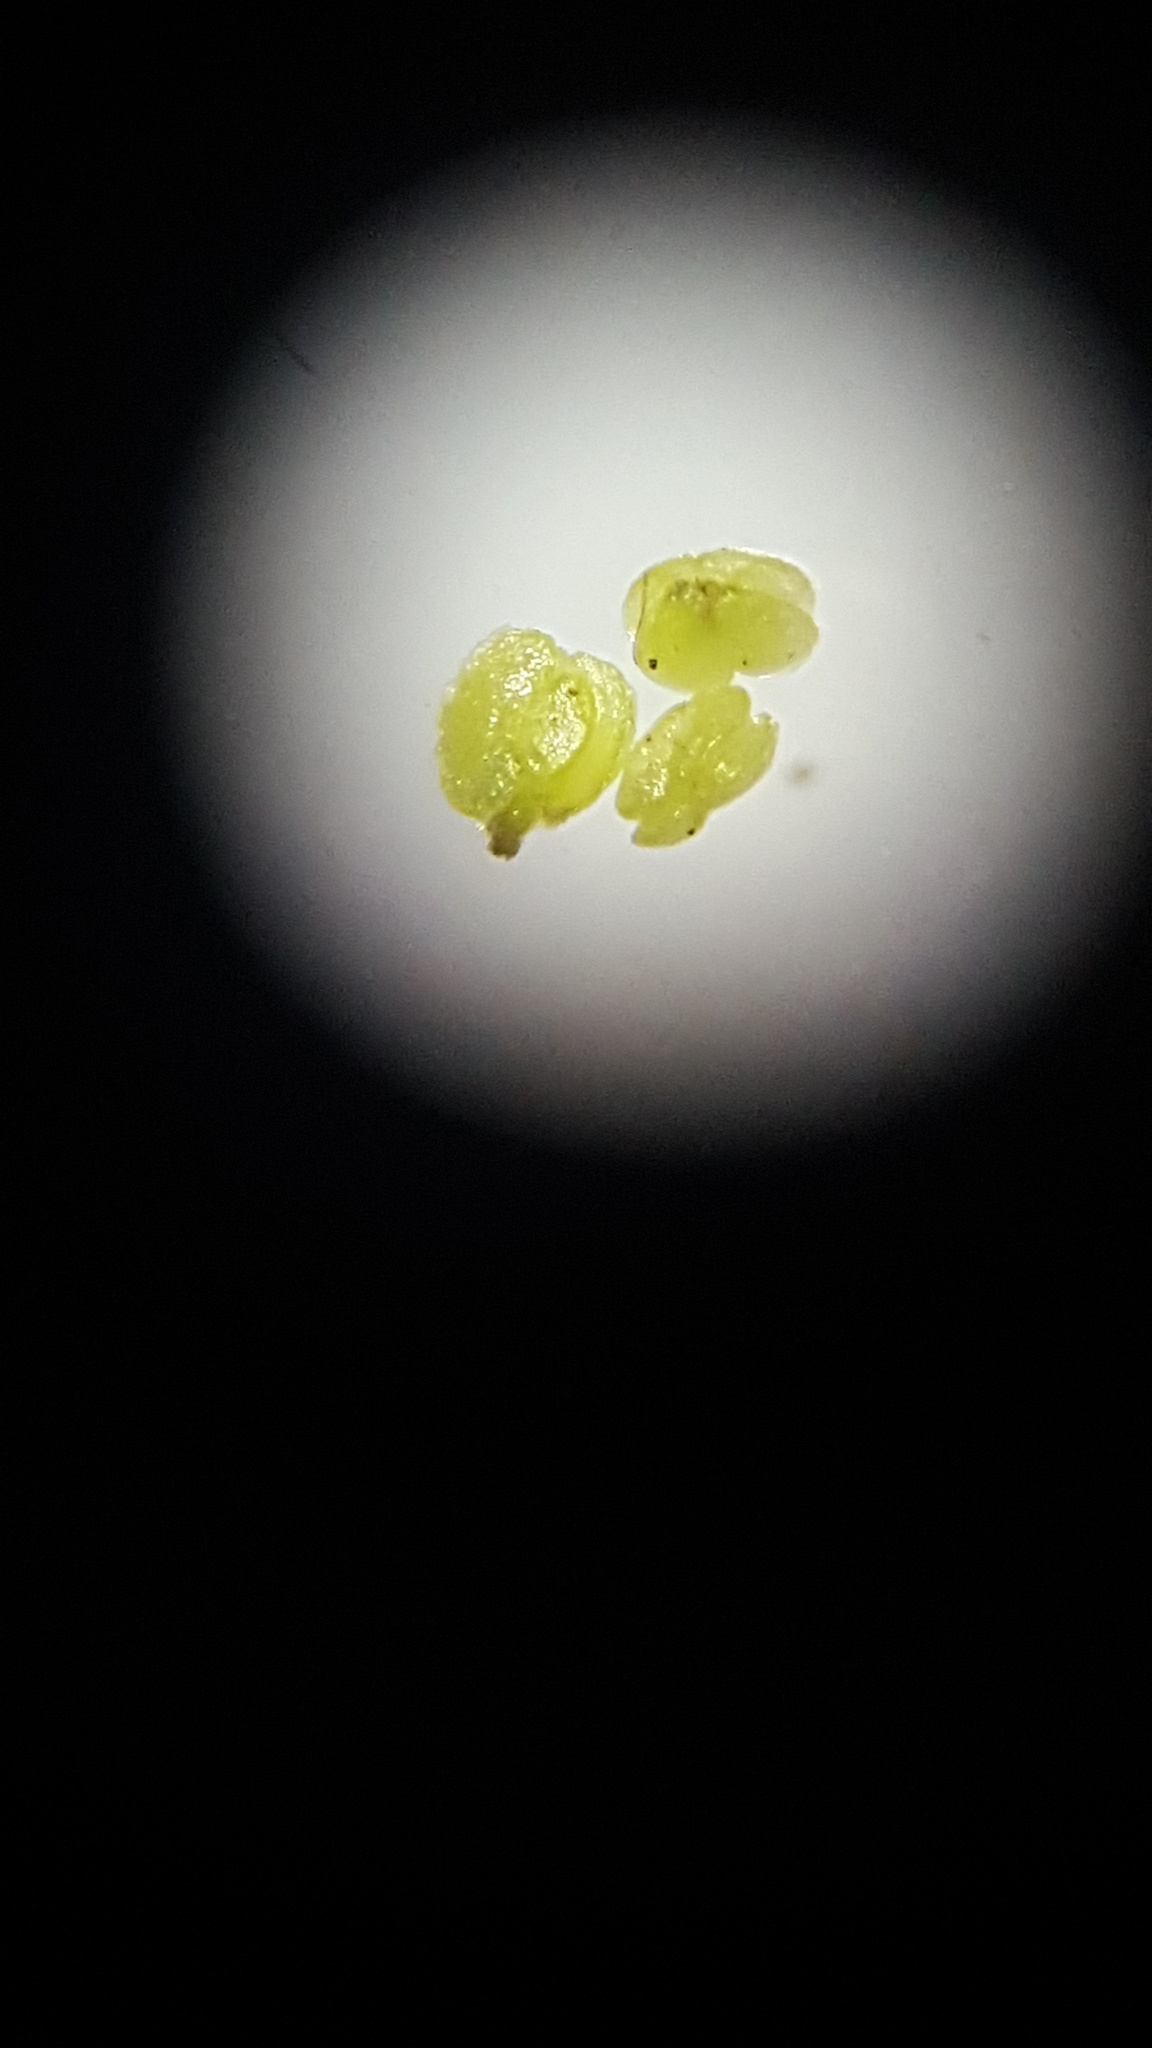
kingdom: Plantae
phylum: Tracheophyta
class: Magnoliopsida
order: Lamiales
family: Plantaginaceae
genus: Callitriche
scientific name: Callitriche palustris
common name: Spring water-starwort
